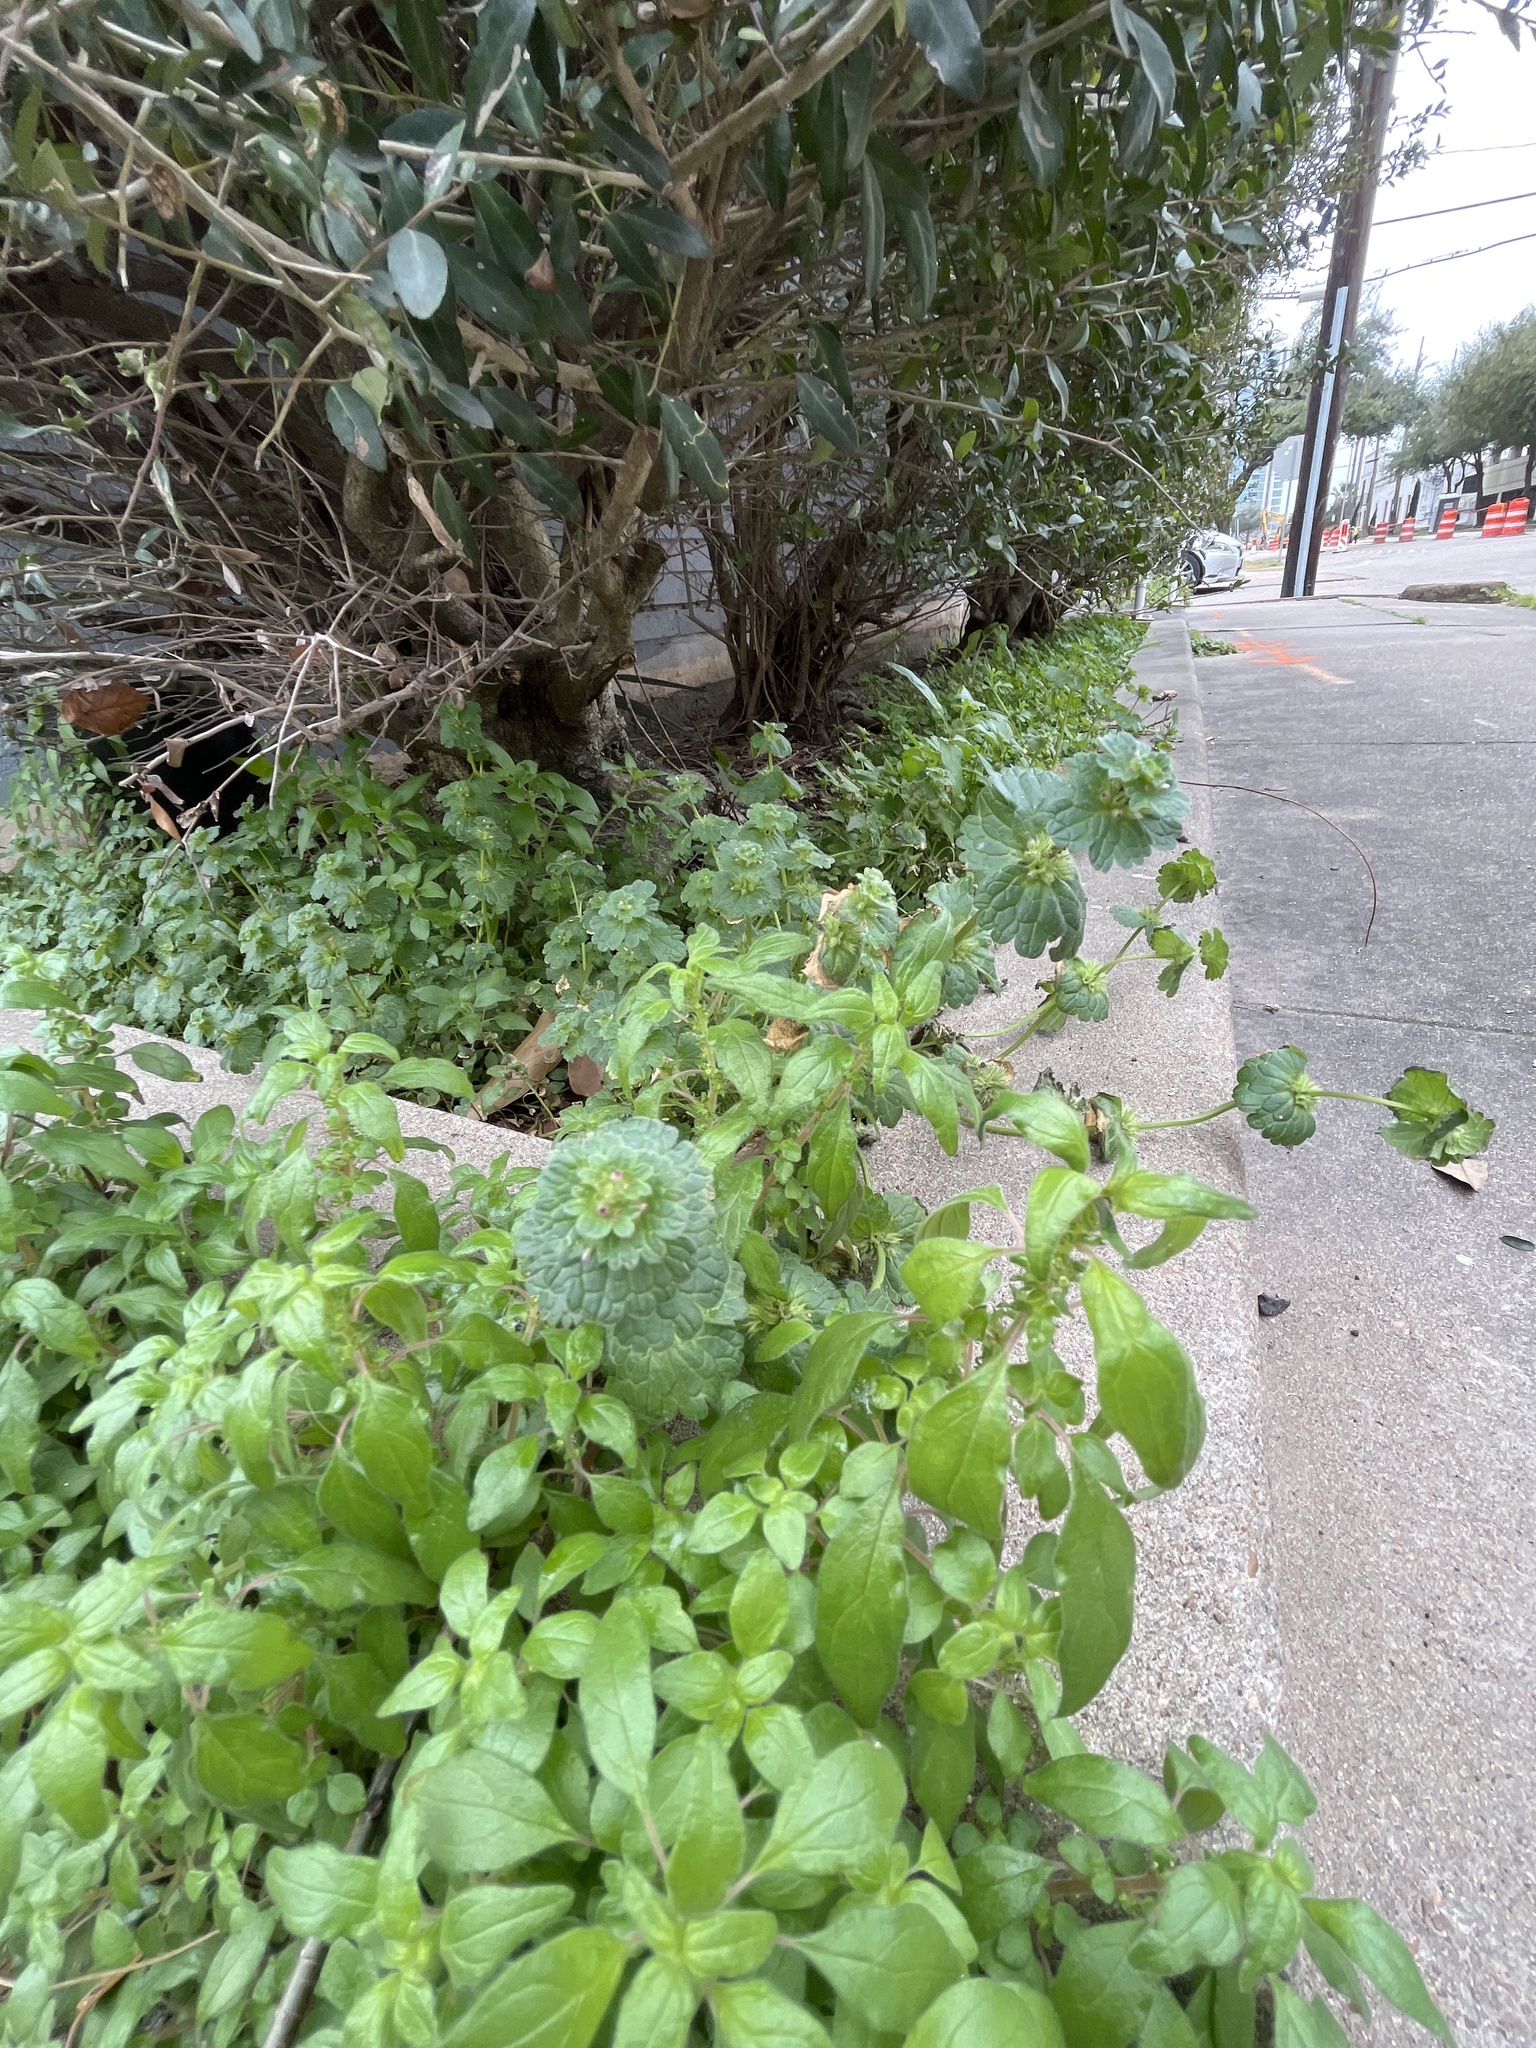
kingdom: Plantae
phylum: Tracheophyta
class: Magnoliopsida
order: Lamiales
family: Lamiaceae
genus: Lamium
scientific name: Lamium amplexicaule
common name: Henbit dead-nettle
